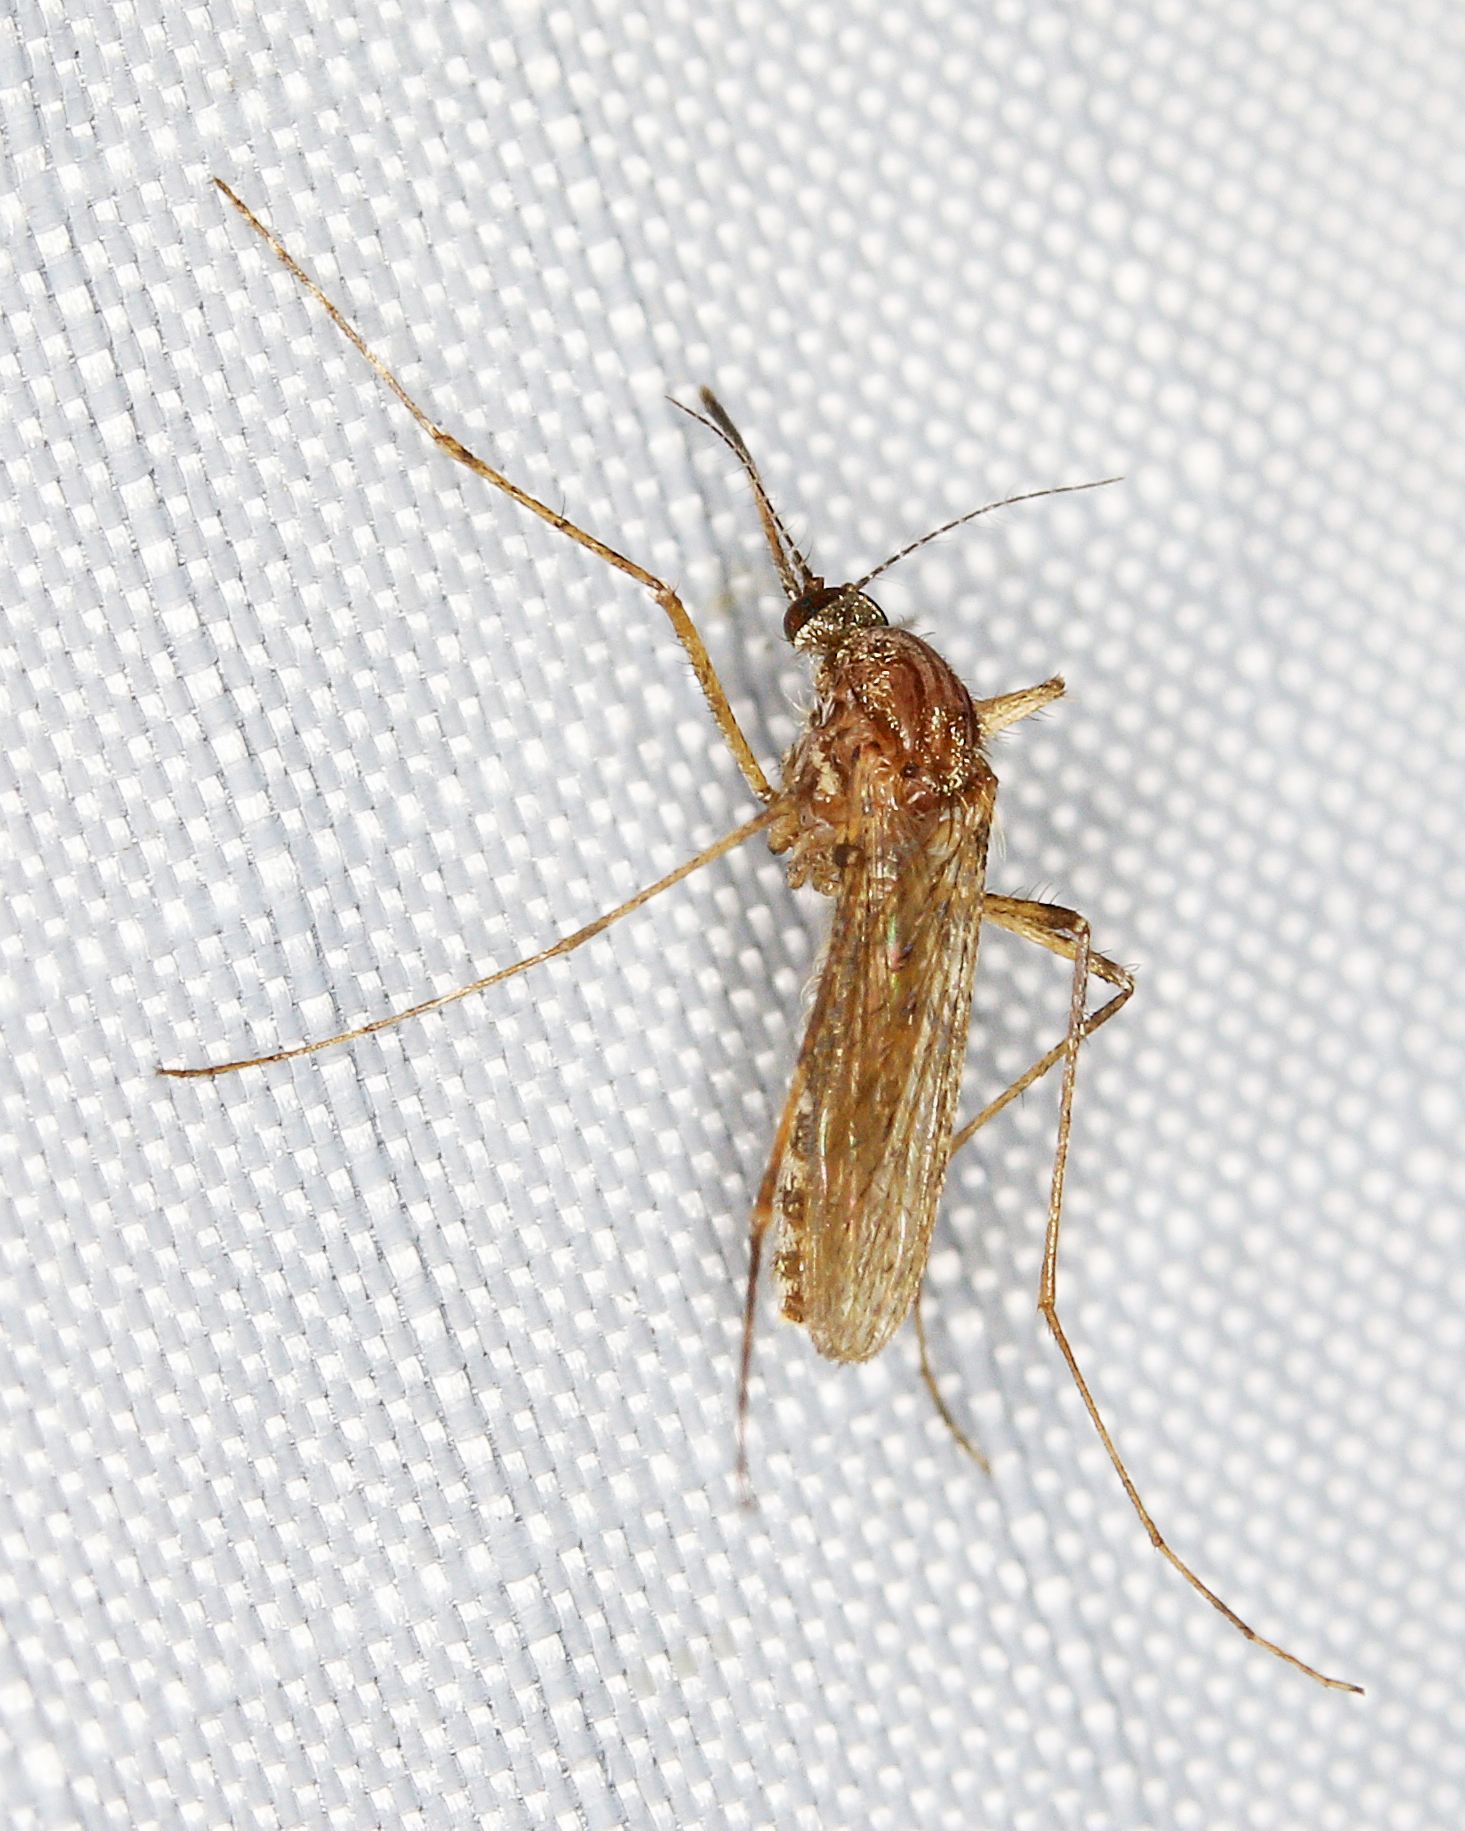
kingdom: Animalia
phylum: Arthropoda
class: Insecta
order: Diptera
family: Culicidae
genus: Coquillettidia
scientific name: Coquillettidia perturbans
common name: Cattail mosquito
